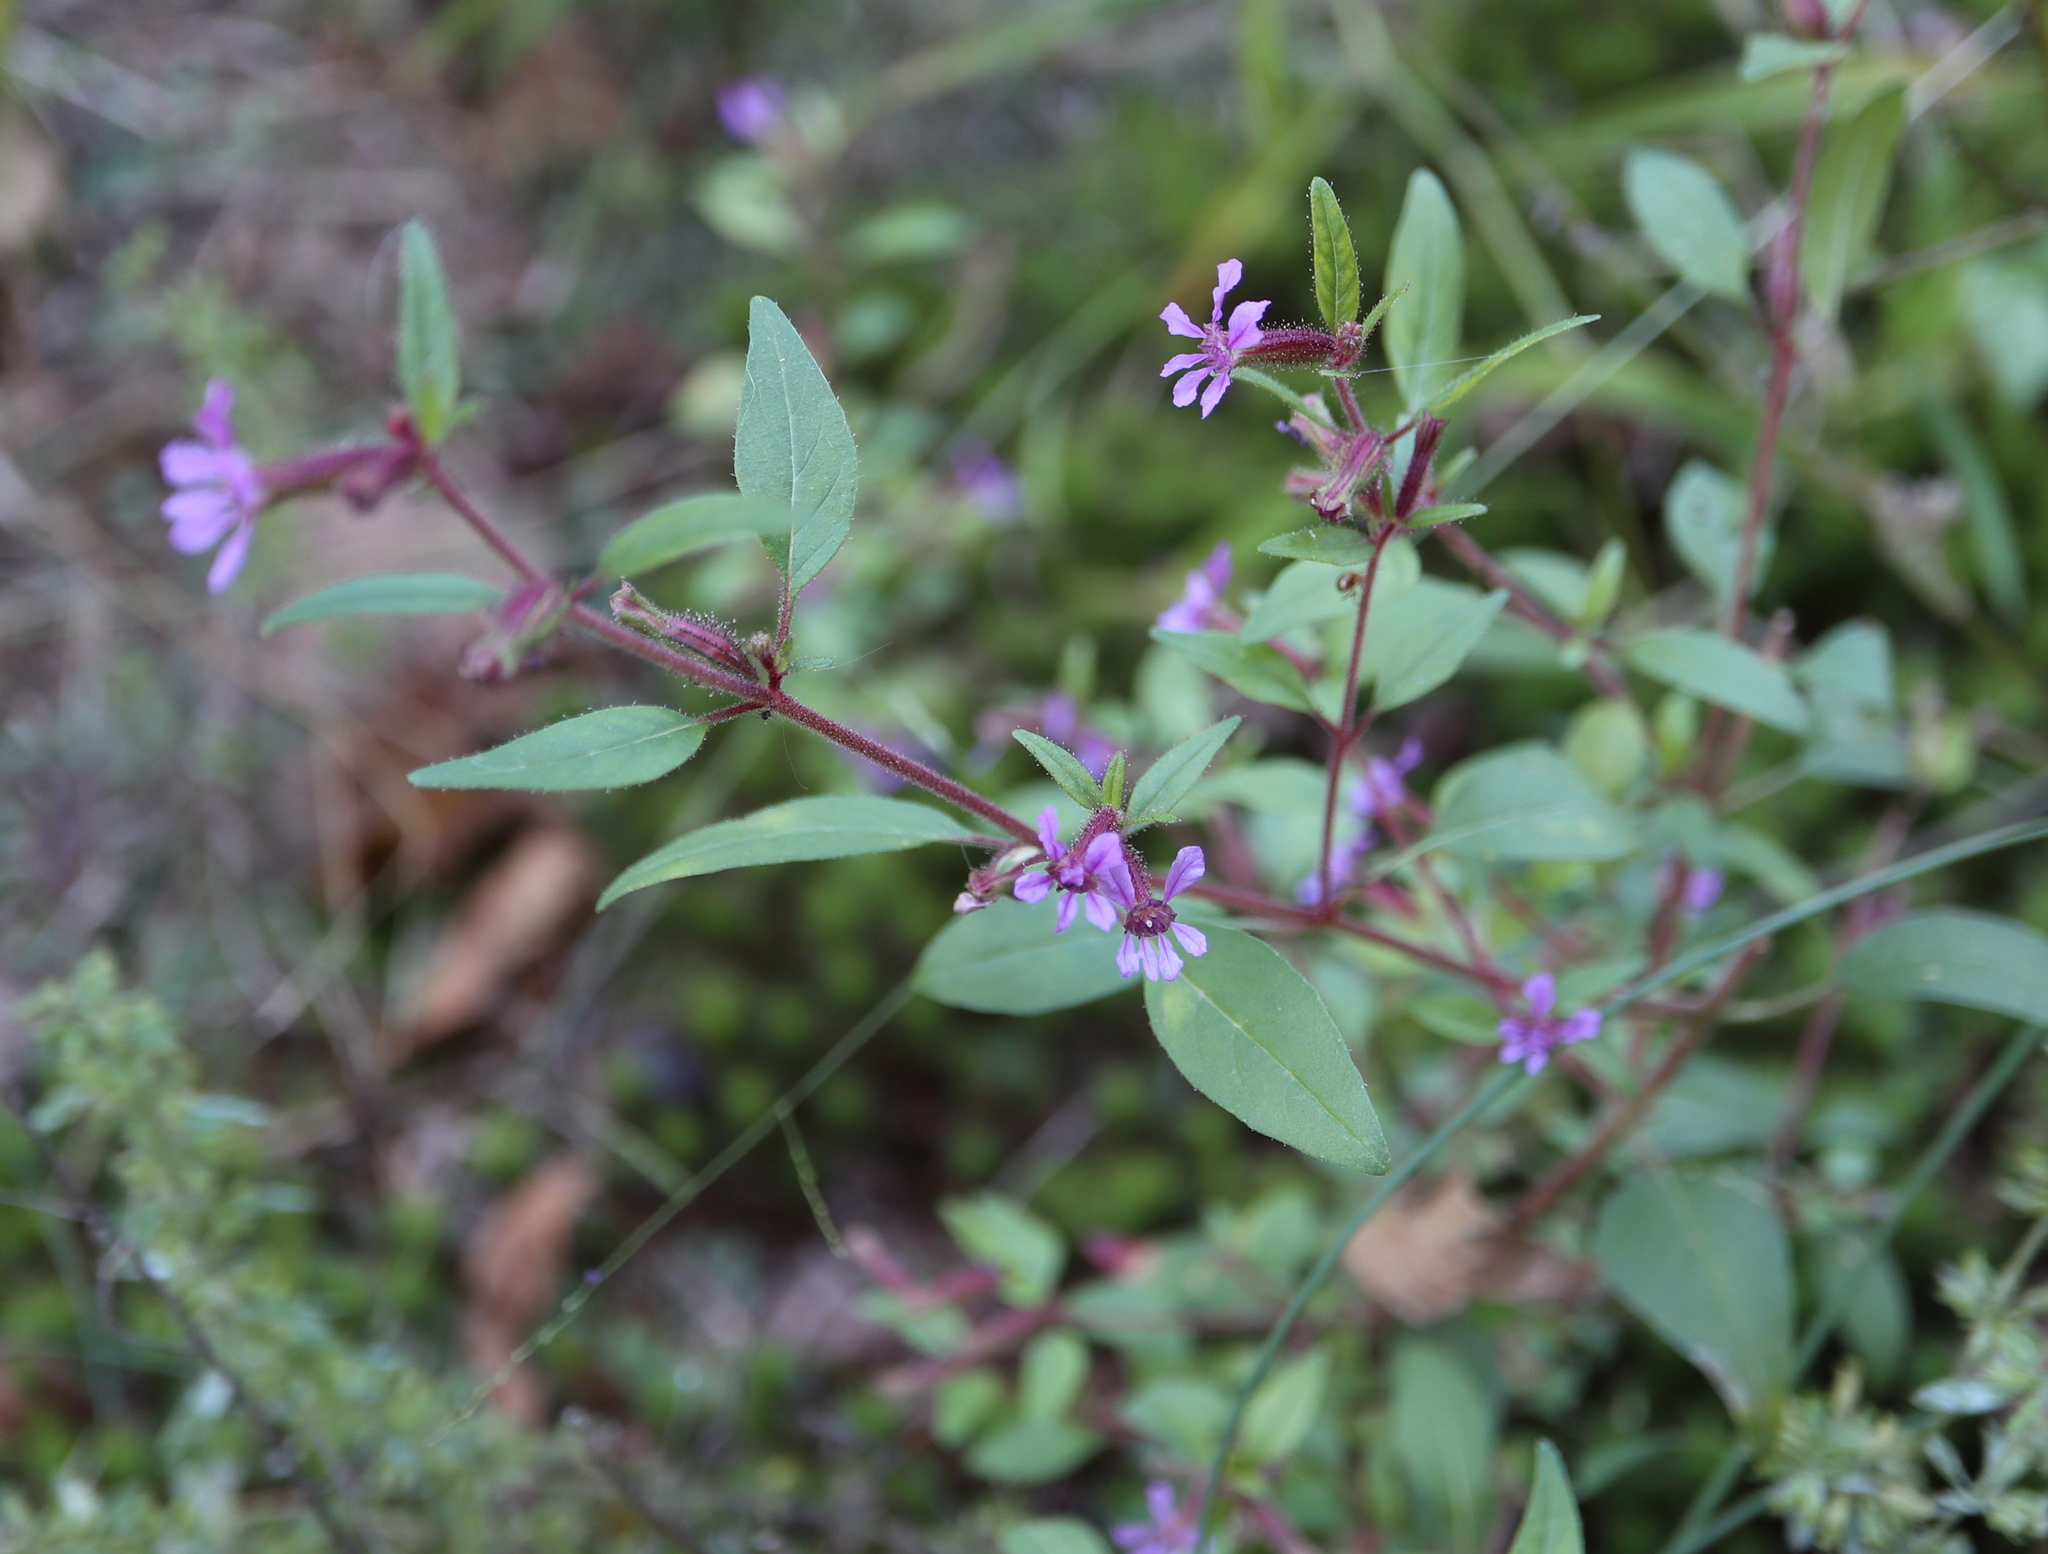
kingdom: Plantae
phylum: Tracheophyta
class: Magnoliopsida
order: Myrtales
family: Lythraceae
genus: Cuphea
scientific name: Cuphea viscosissima
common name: Clammy cuphea
